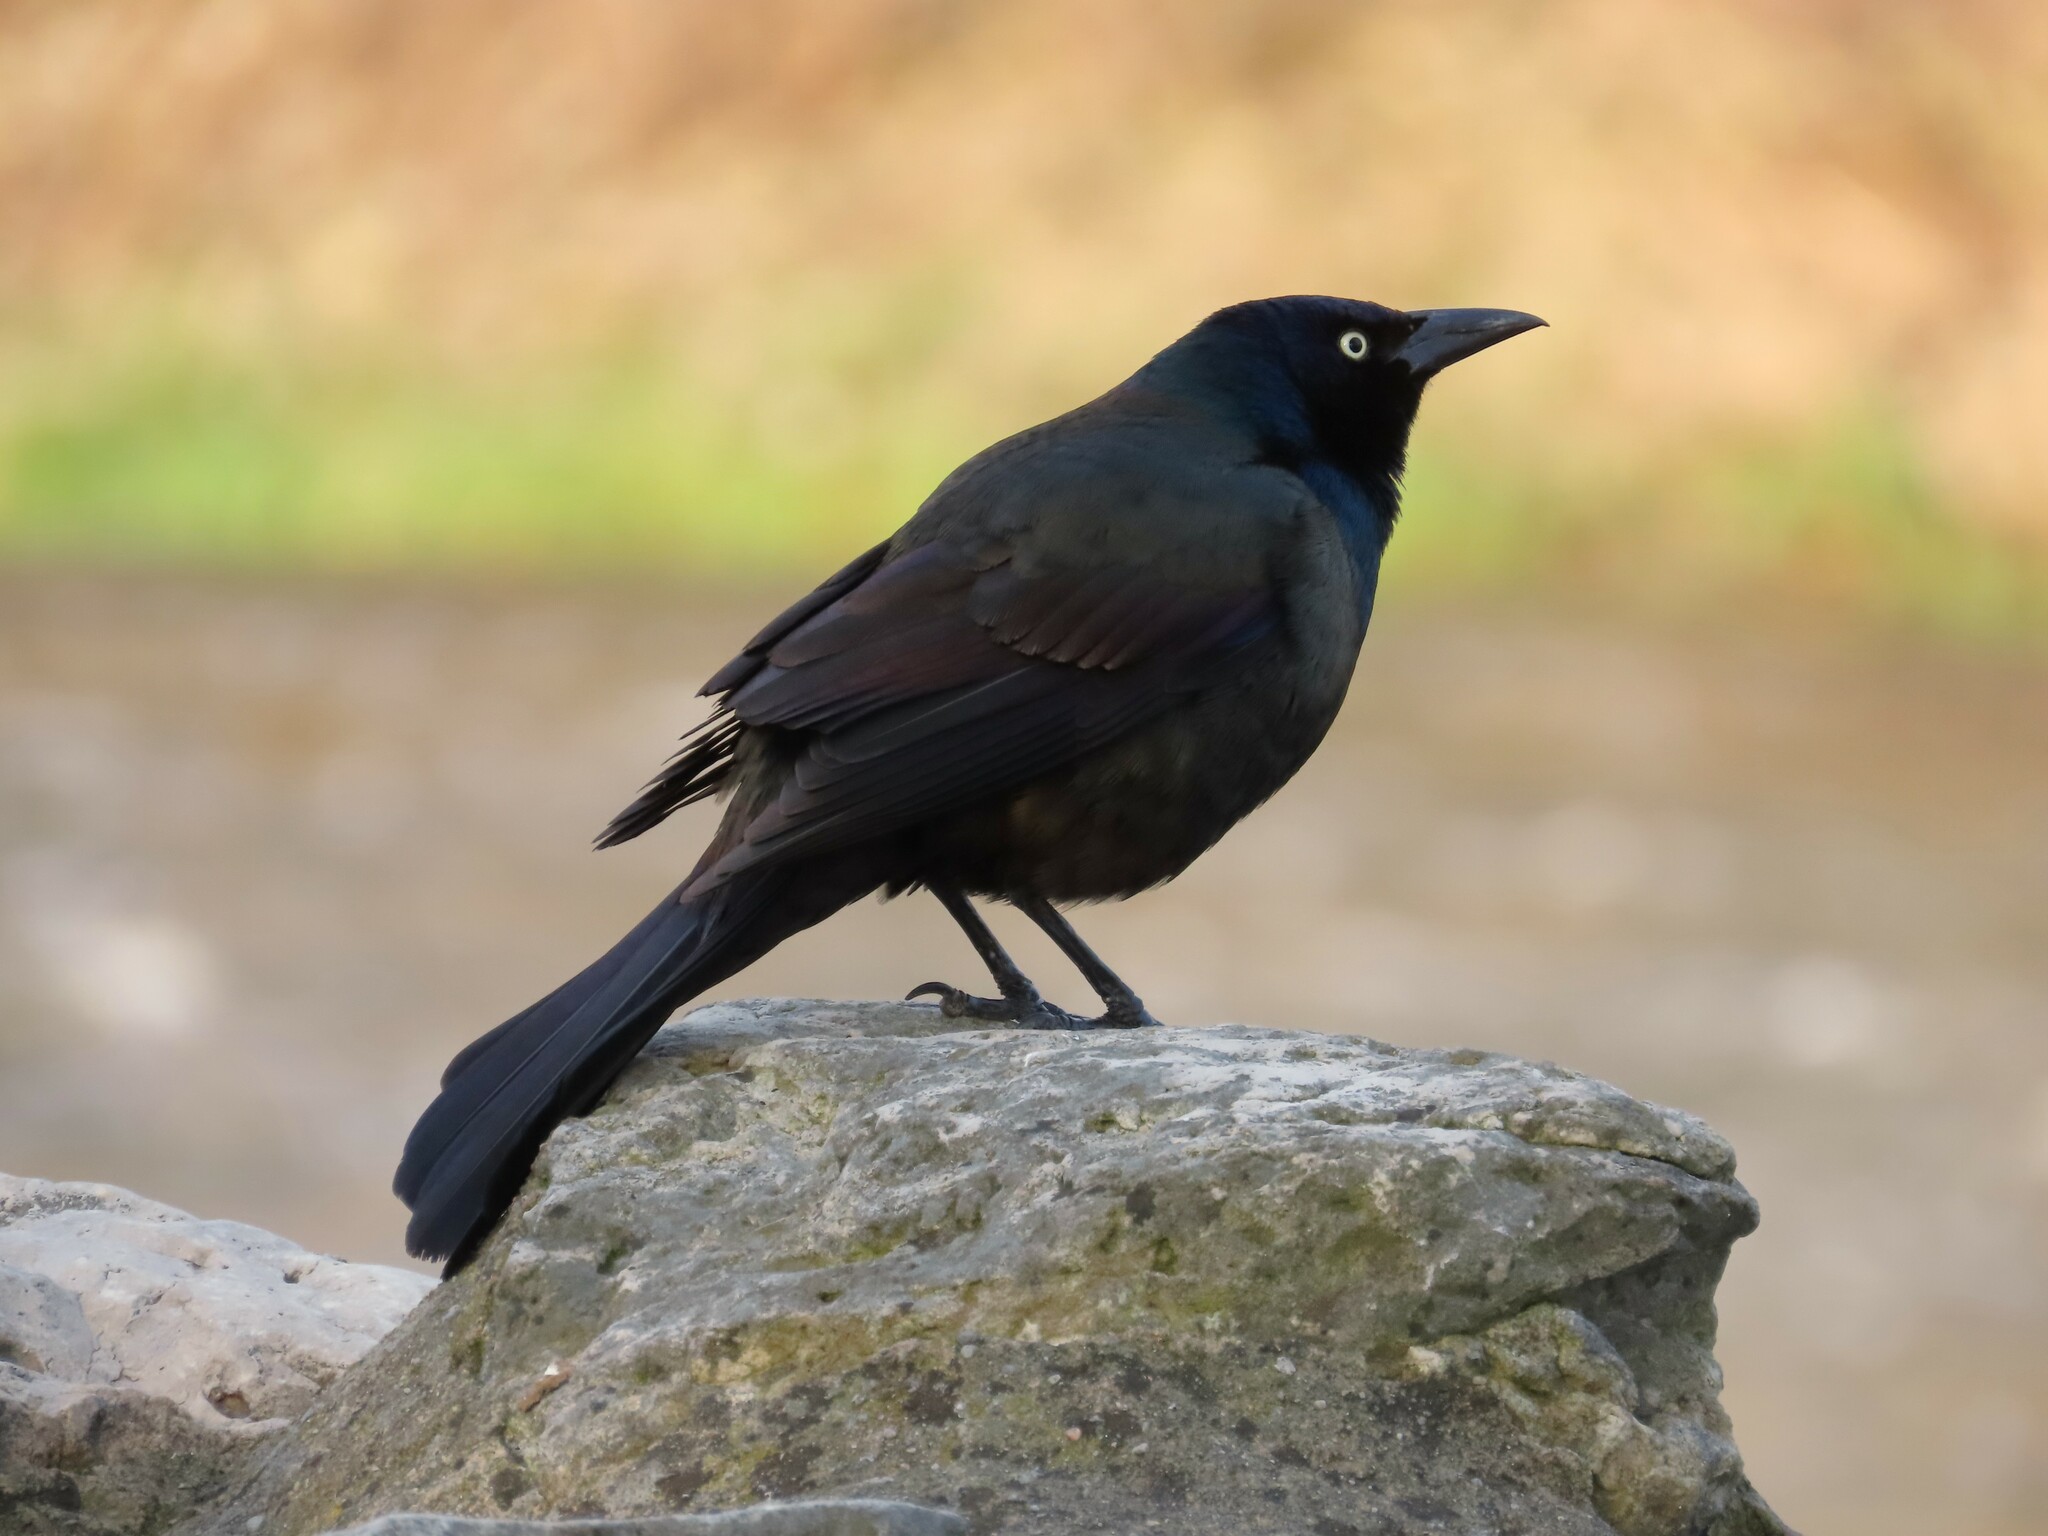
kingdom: Animalia
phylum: Chordata
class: Aves
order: Passeriformes
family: Icteridae
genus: Quiscalus
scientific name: Quiscalus quiscula
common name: Common grackle
